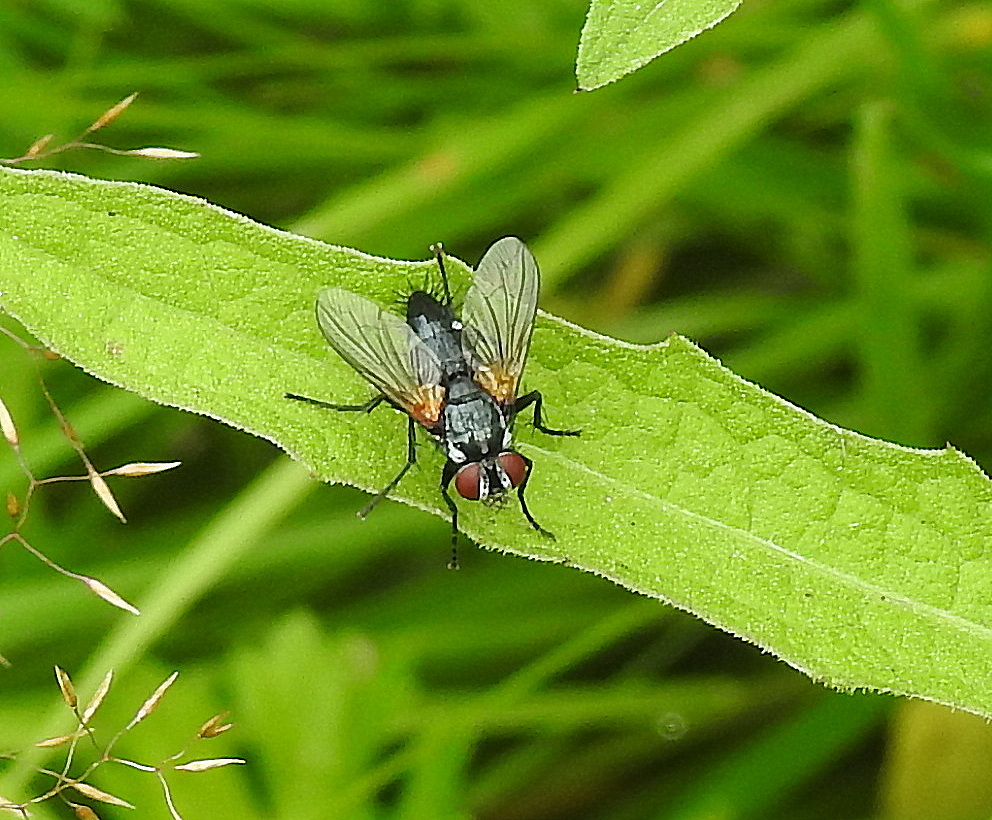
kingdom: Animalia
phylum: Arthropoda
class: Insecta
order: Diptera
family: Tachinidae
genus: Thelaira
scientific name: Thelaira nigripes
